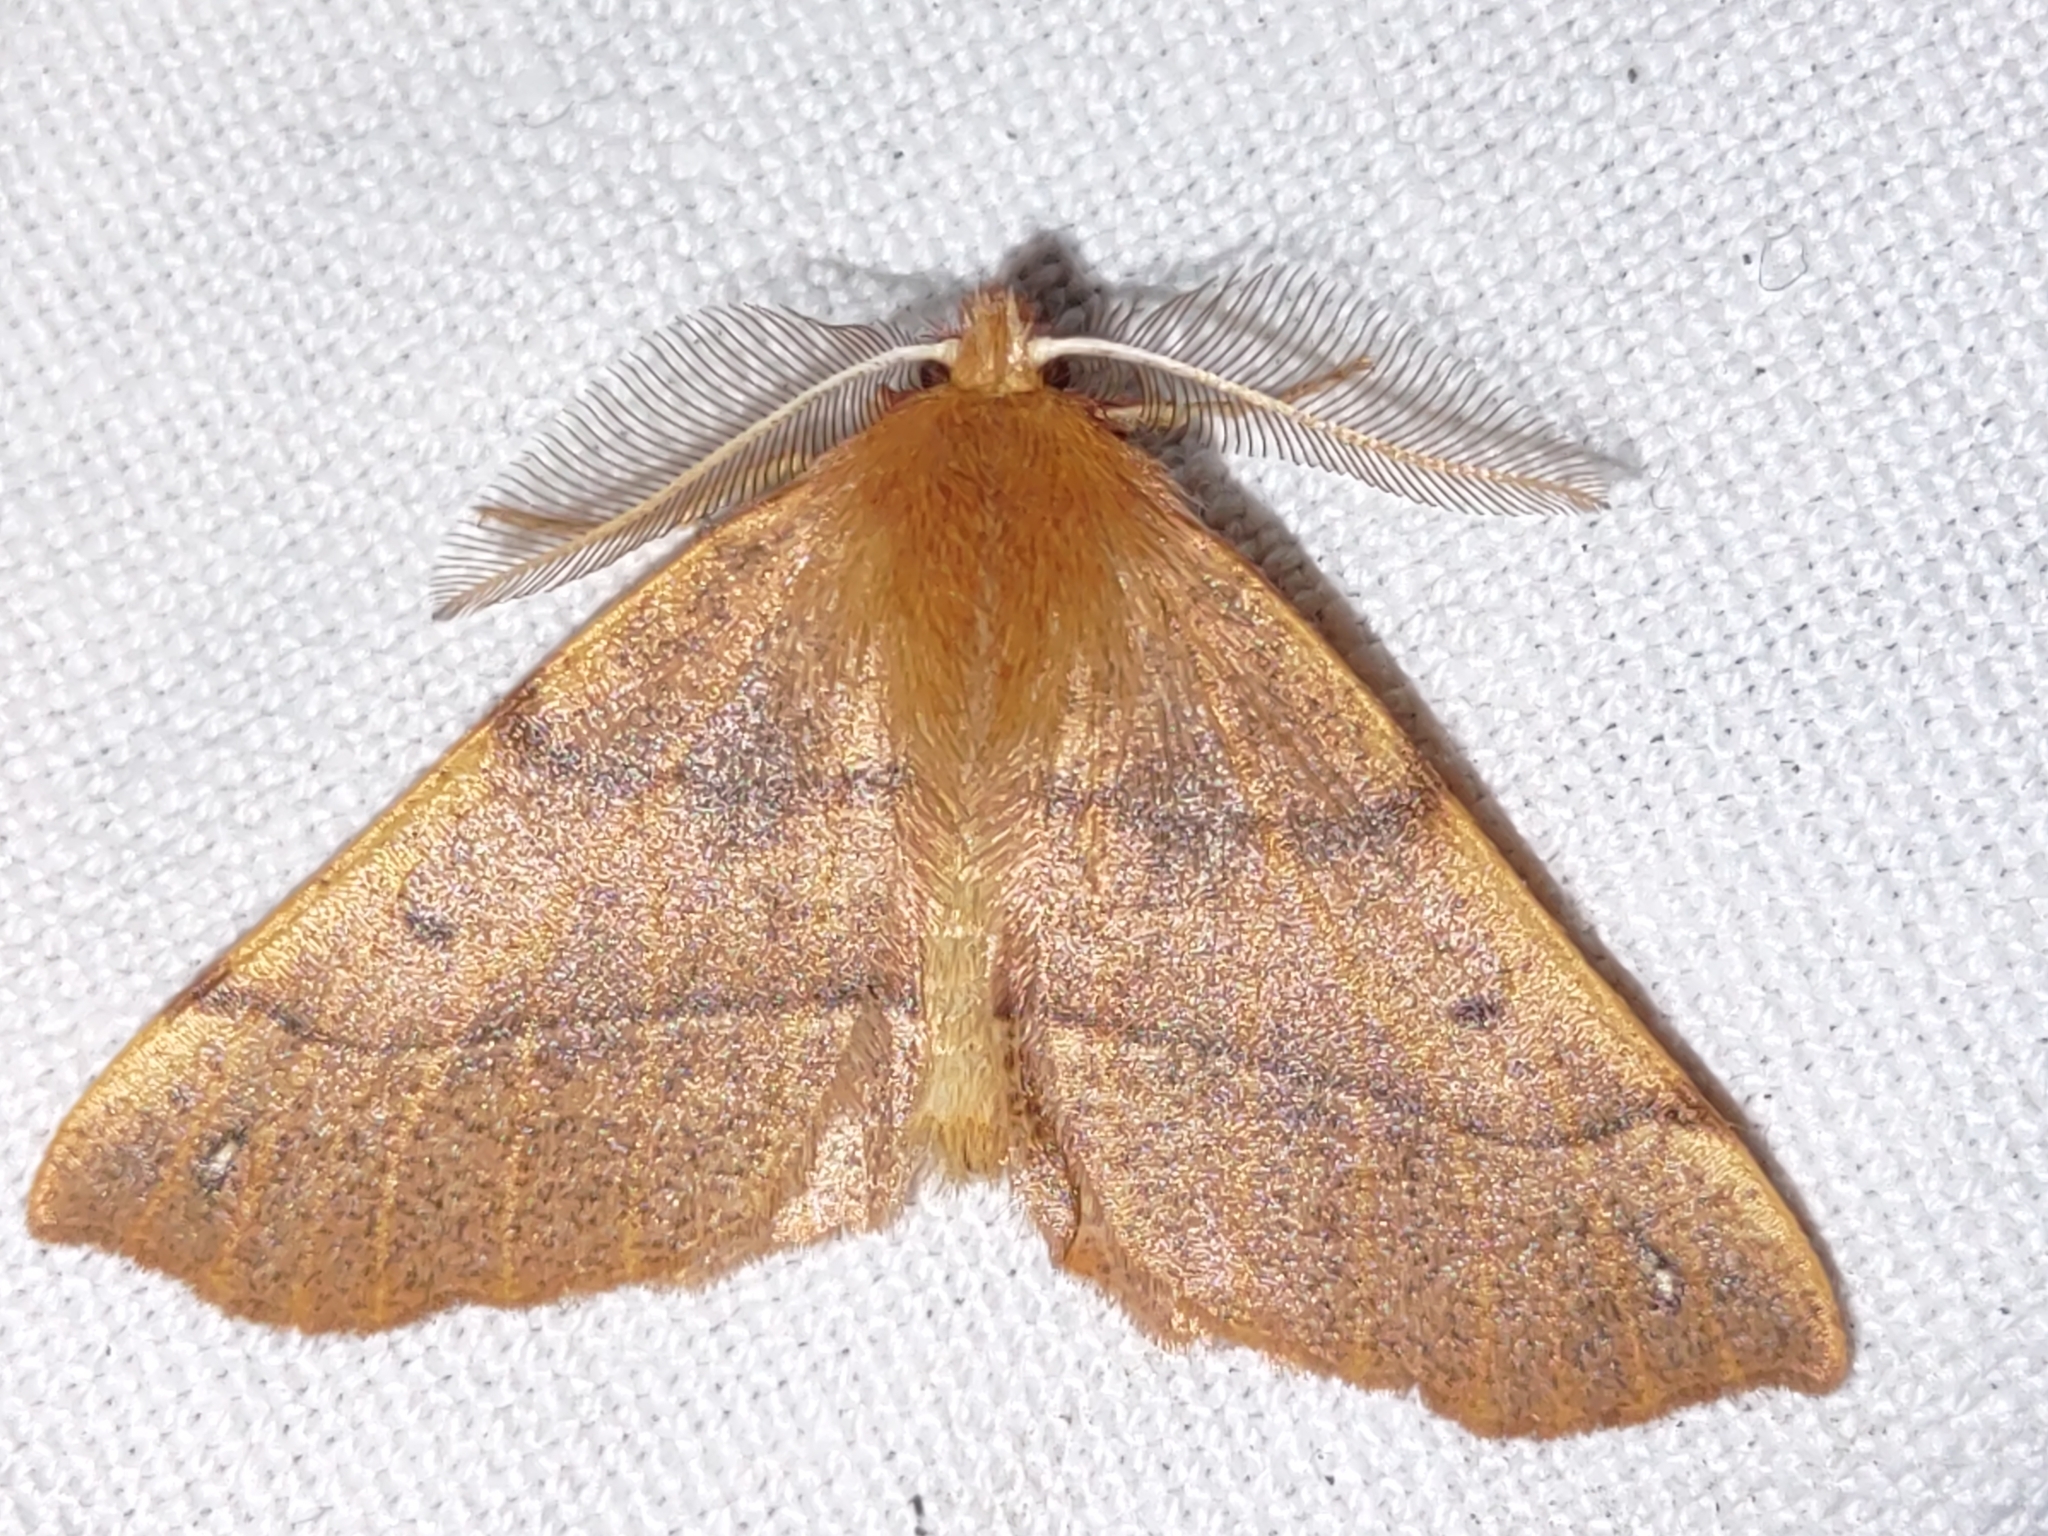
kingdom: Animalia
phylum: Arthropoda
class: Insecta
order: Lepidoptera
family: Geometridae
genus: Colotois
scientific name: Colotois pennaria
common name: Feathered thorn
